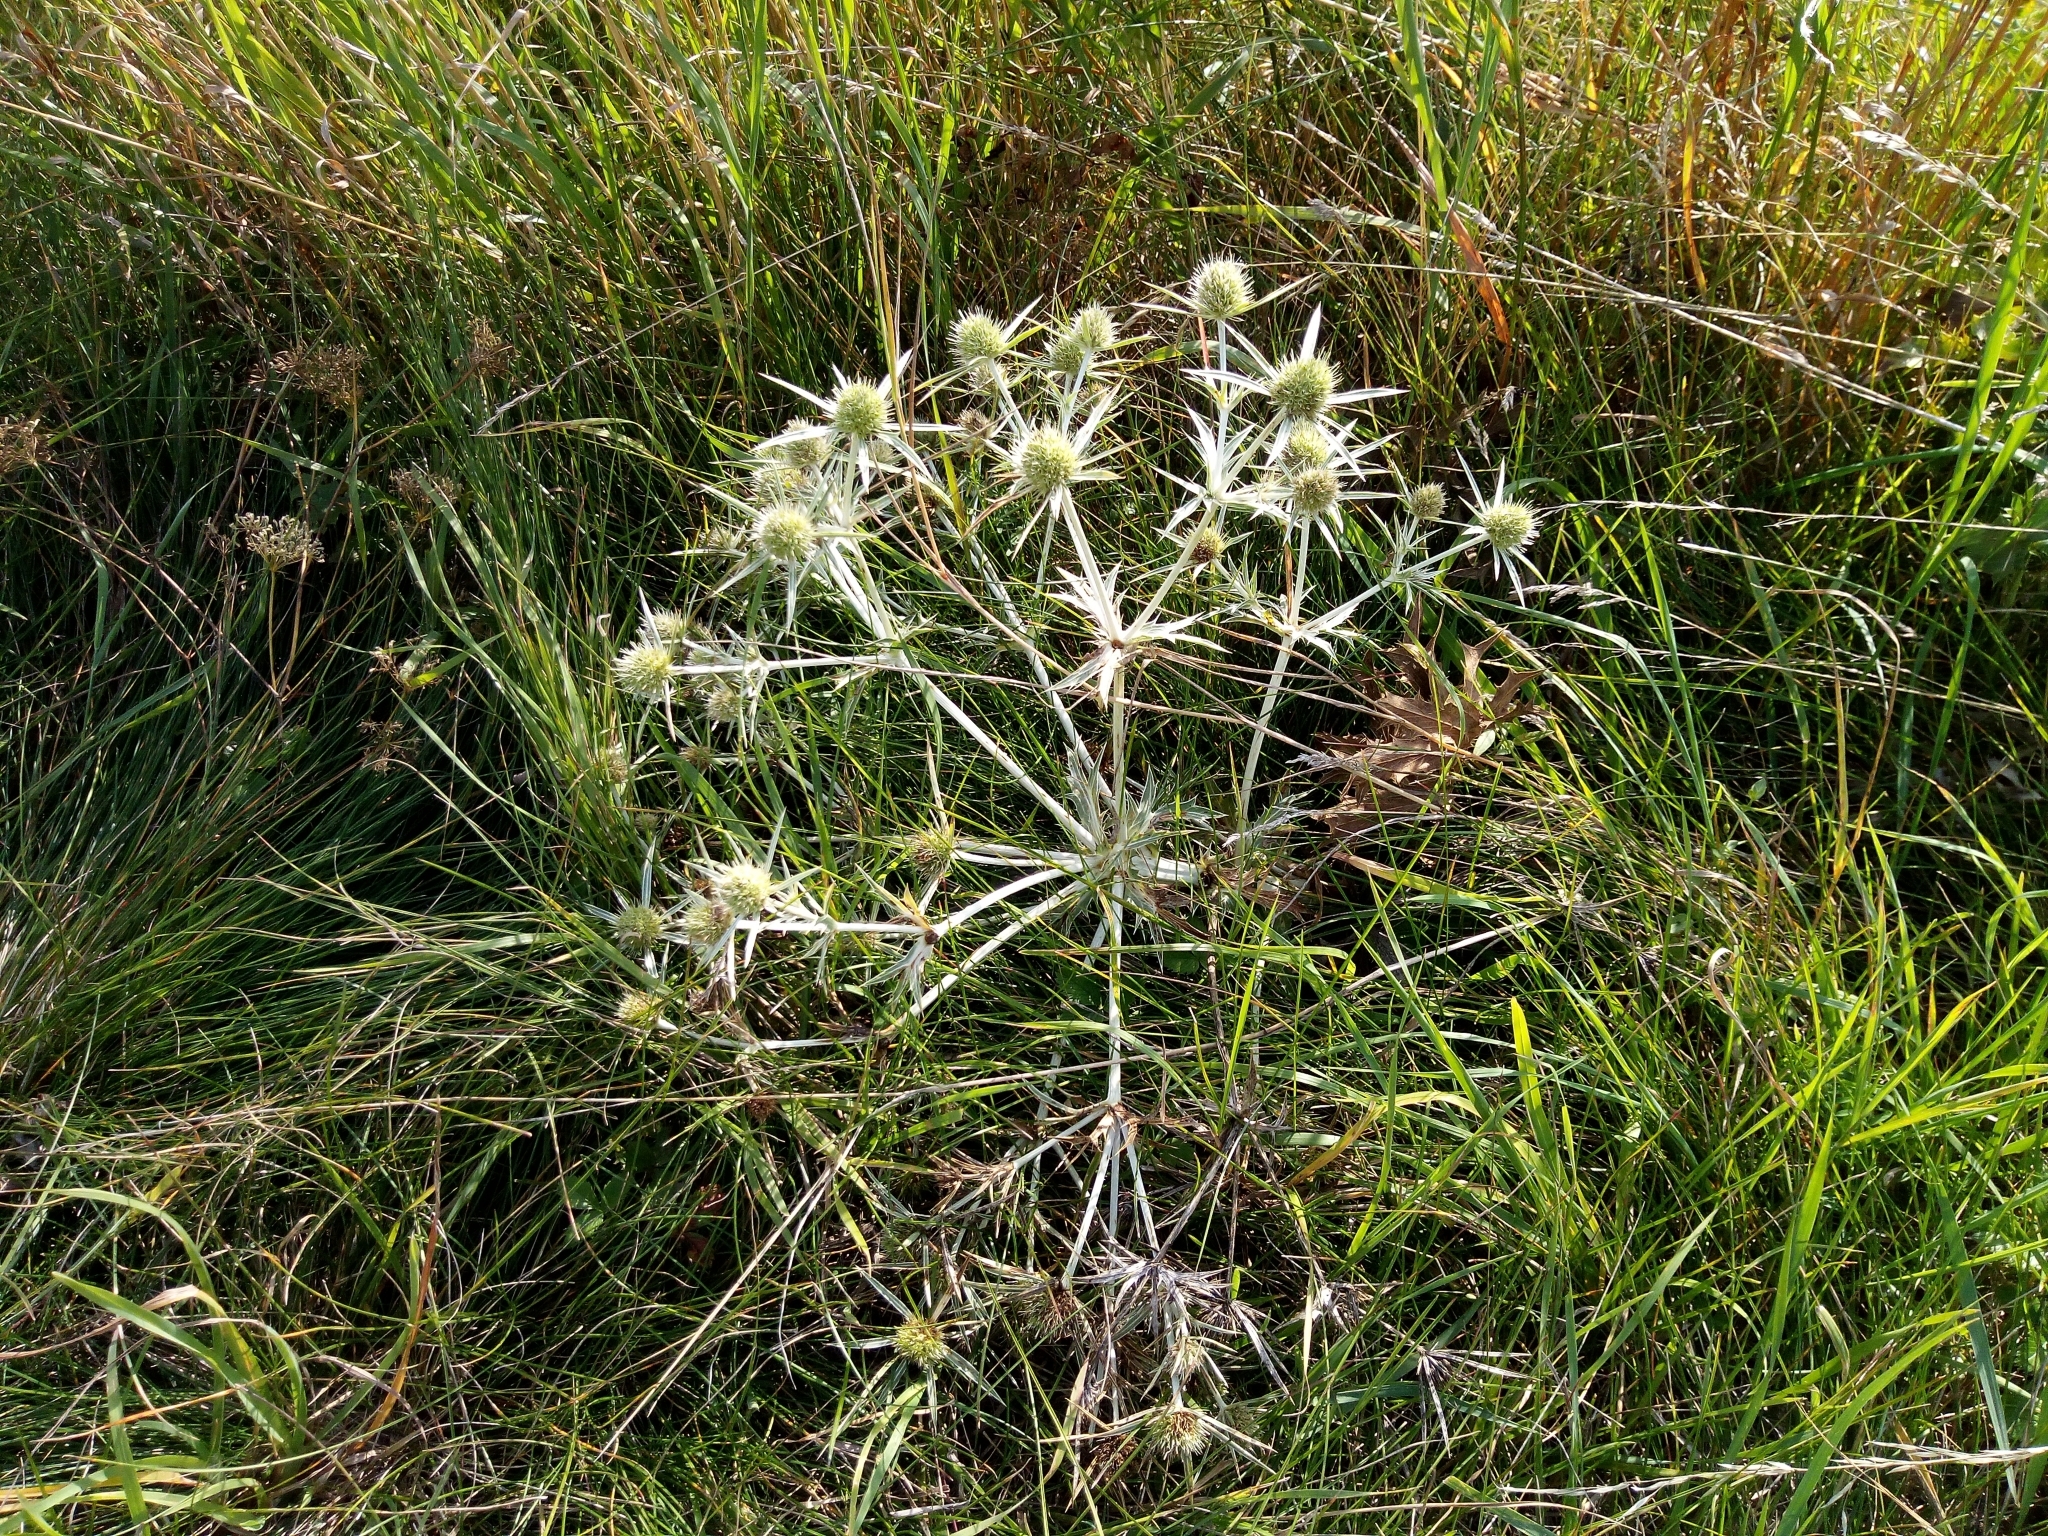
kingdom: Plantae
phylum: Tracheophyta
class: Magnoliopsida
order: Apiales
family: Apiaceae
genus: Eryngium
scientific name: Eryngium campestre
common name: Field eryngo
